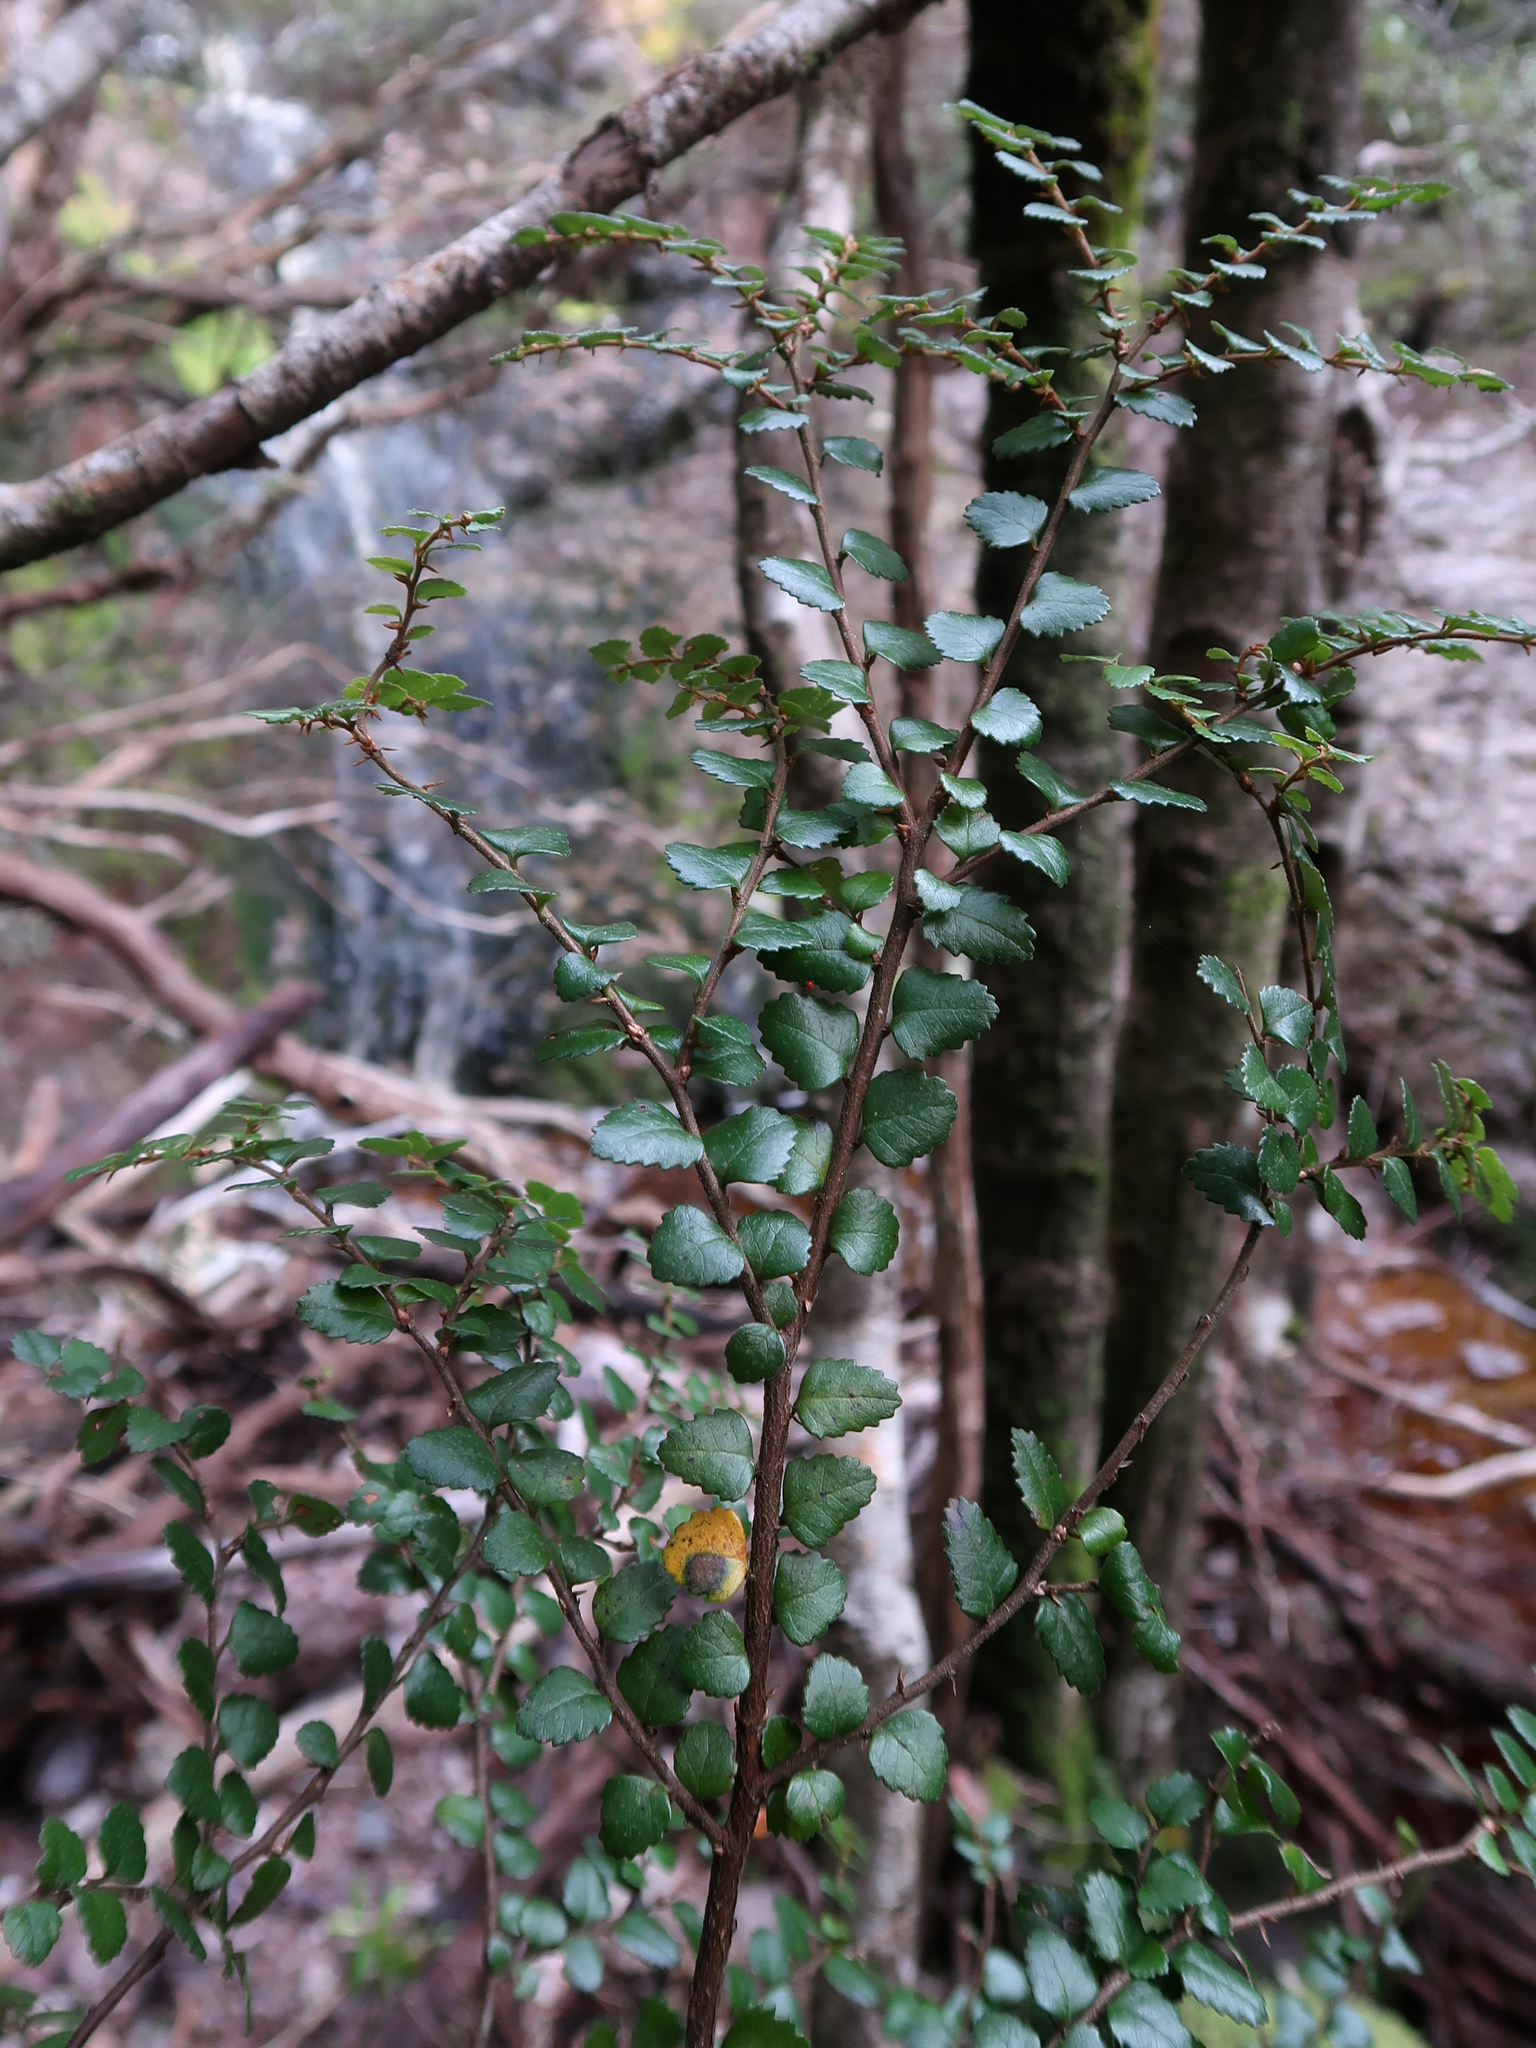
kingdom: Plantae
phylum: Tracheophyta
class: Magnoliopsida
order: Fagales
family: Nothofagaceae
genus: Nothofagus
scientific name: Nothofagus cunninghamii
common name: Myrtle beech
